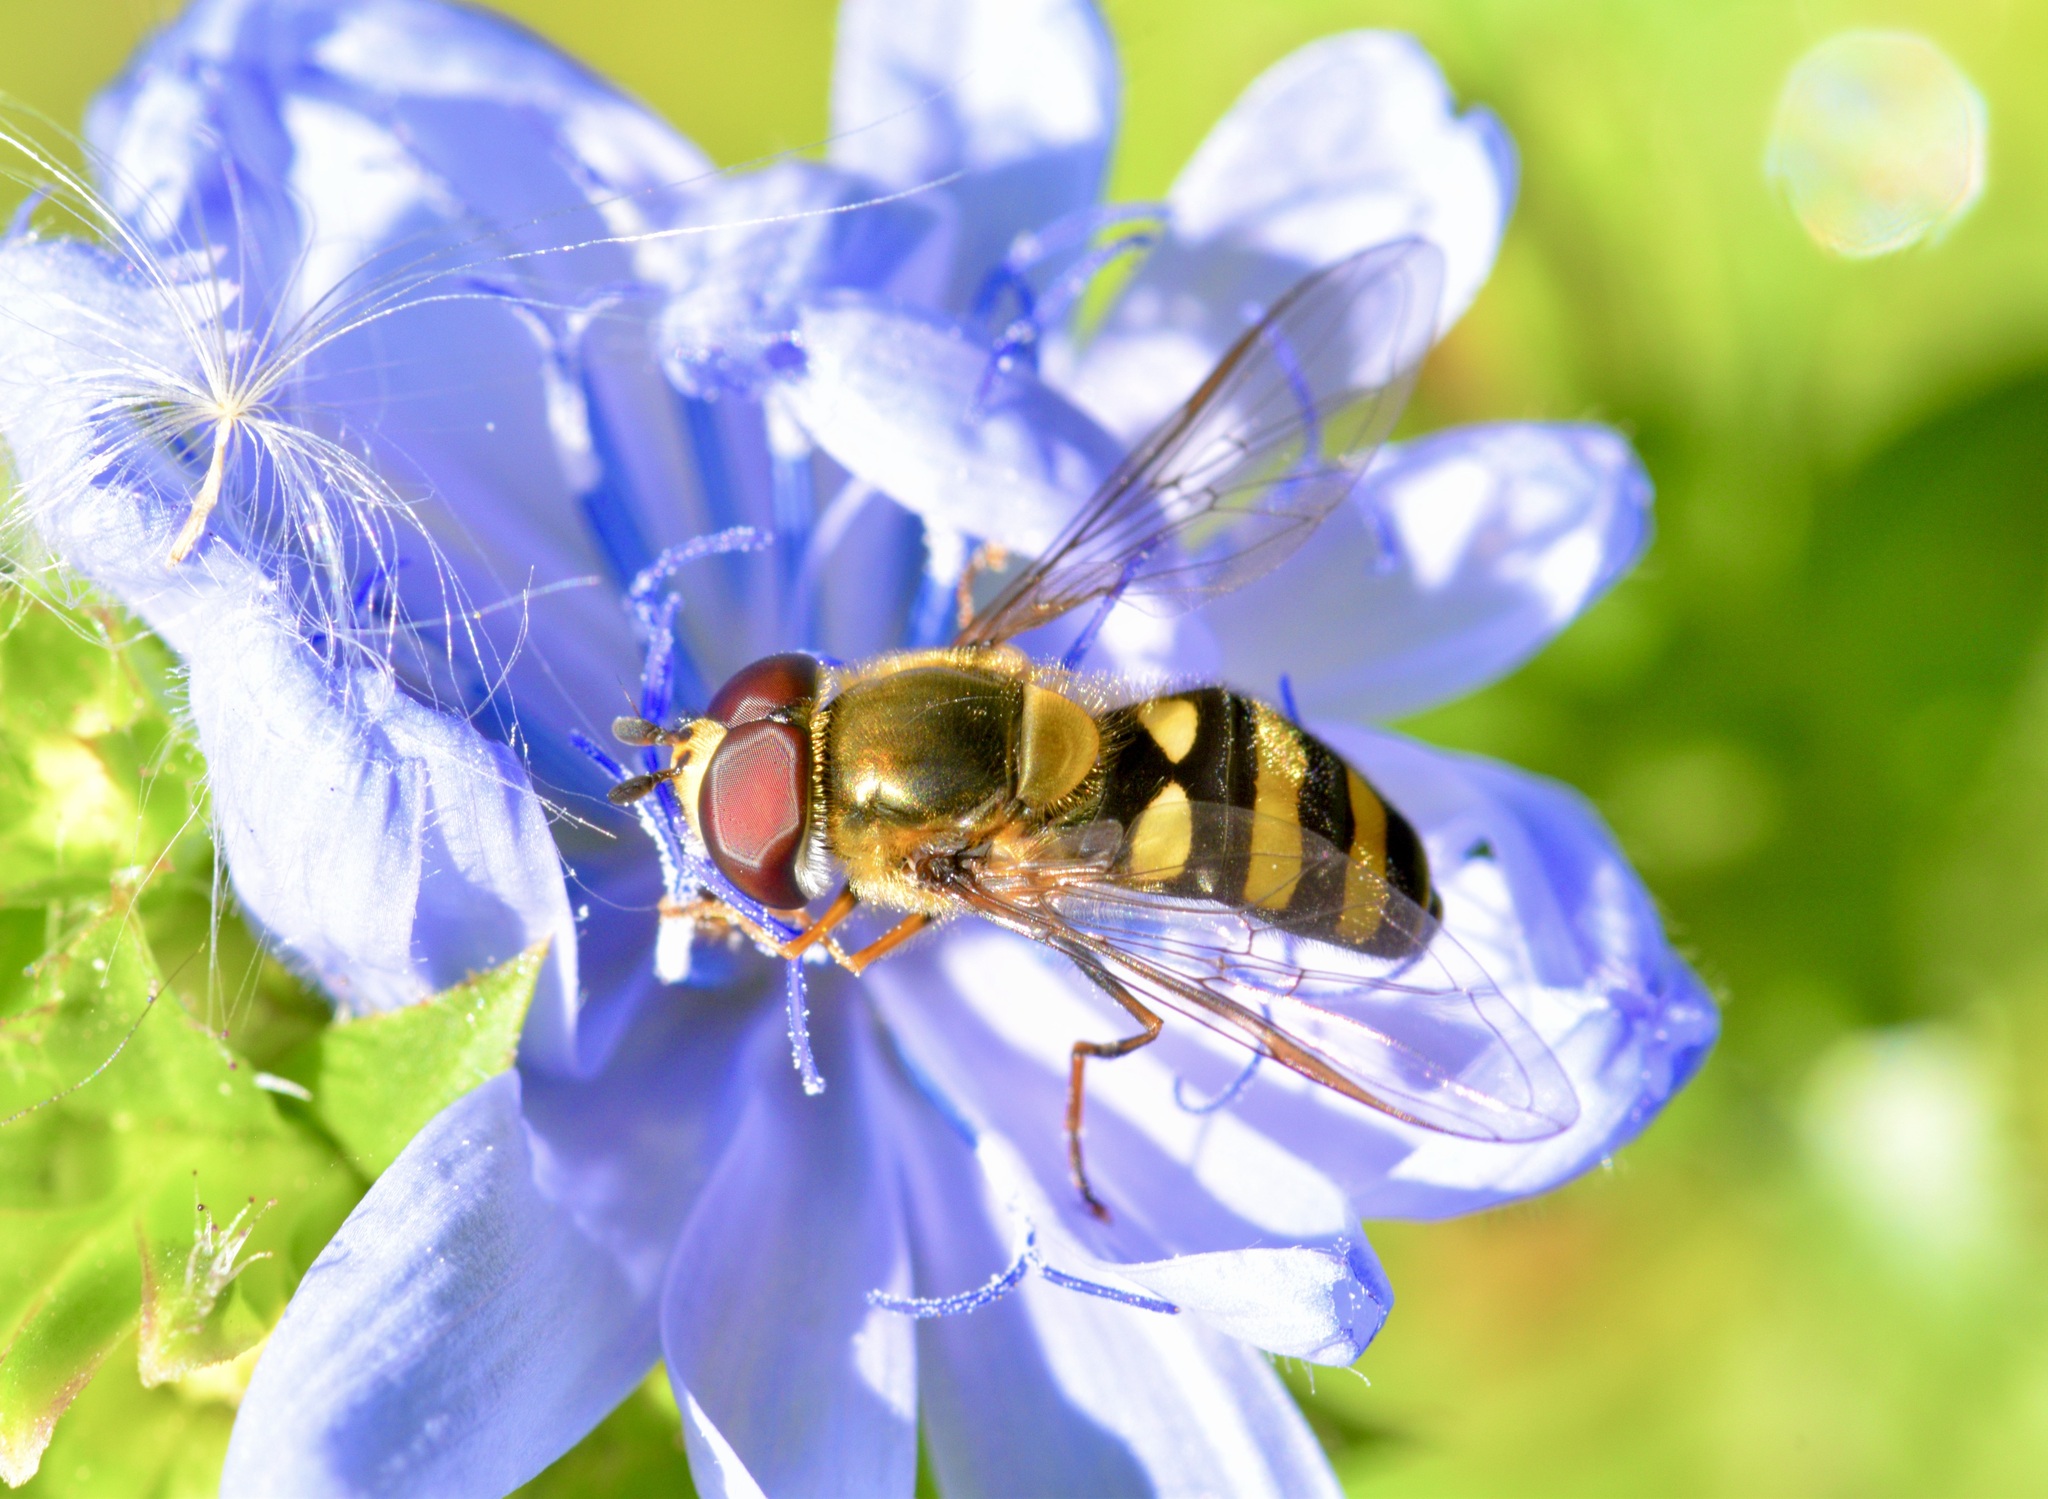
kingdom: Animalia
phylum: Arthropoda
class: Insecta
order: Diptera
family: Syrphidae
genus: Eupeodes
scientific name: Eupeodes
